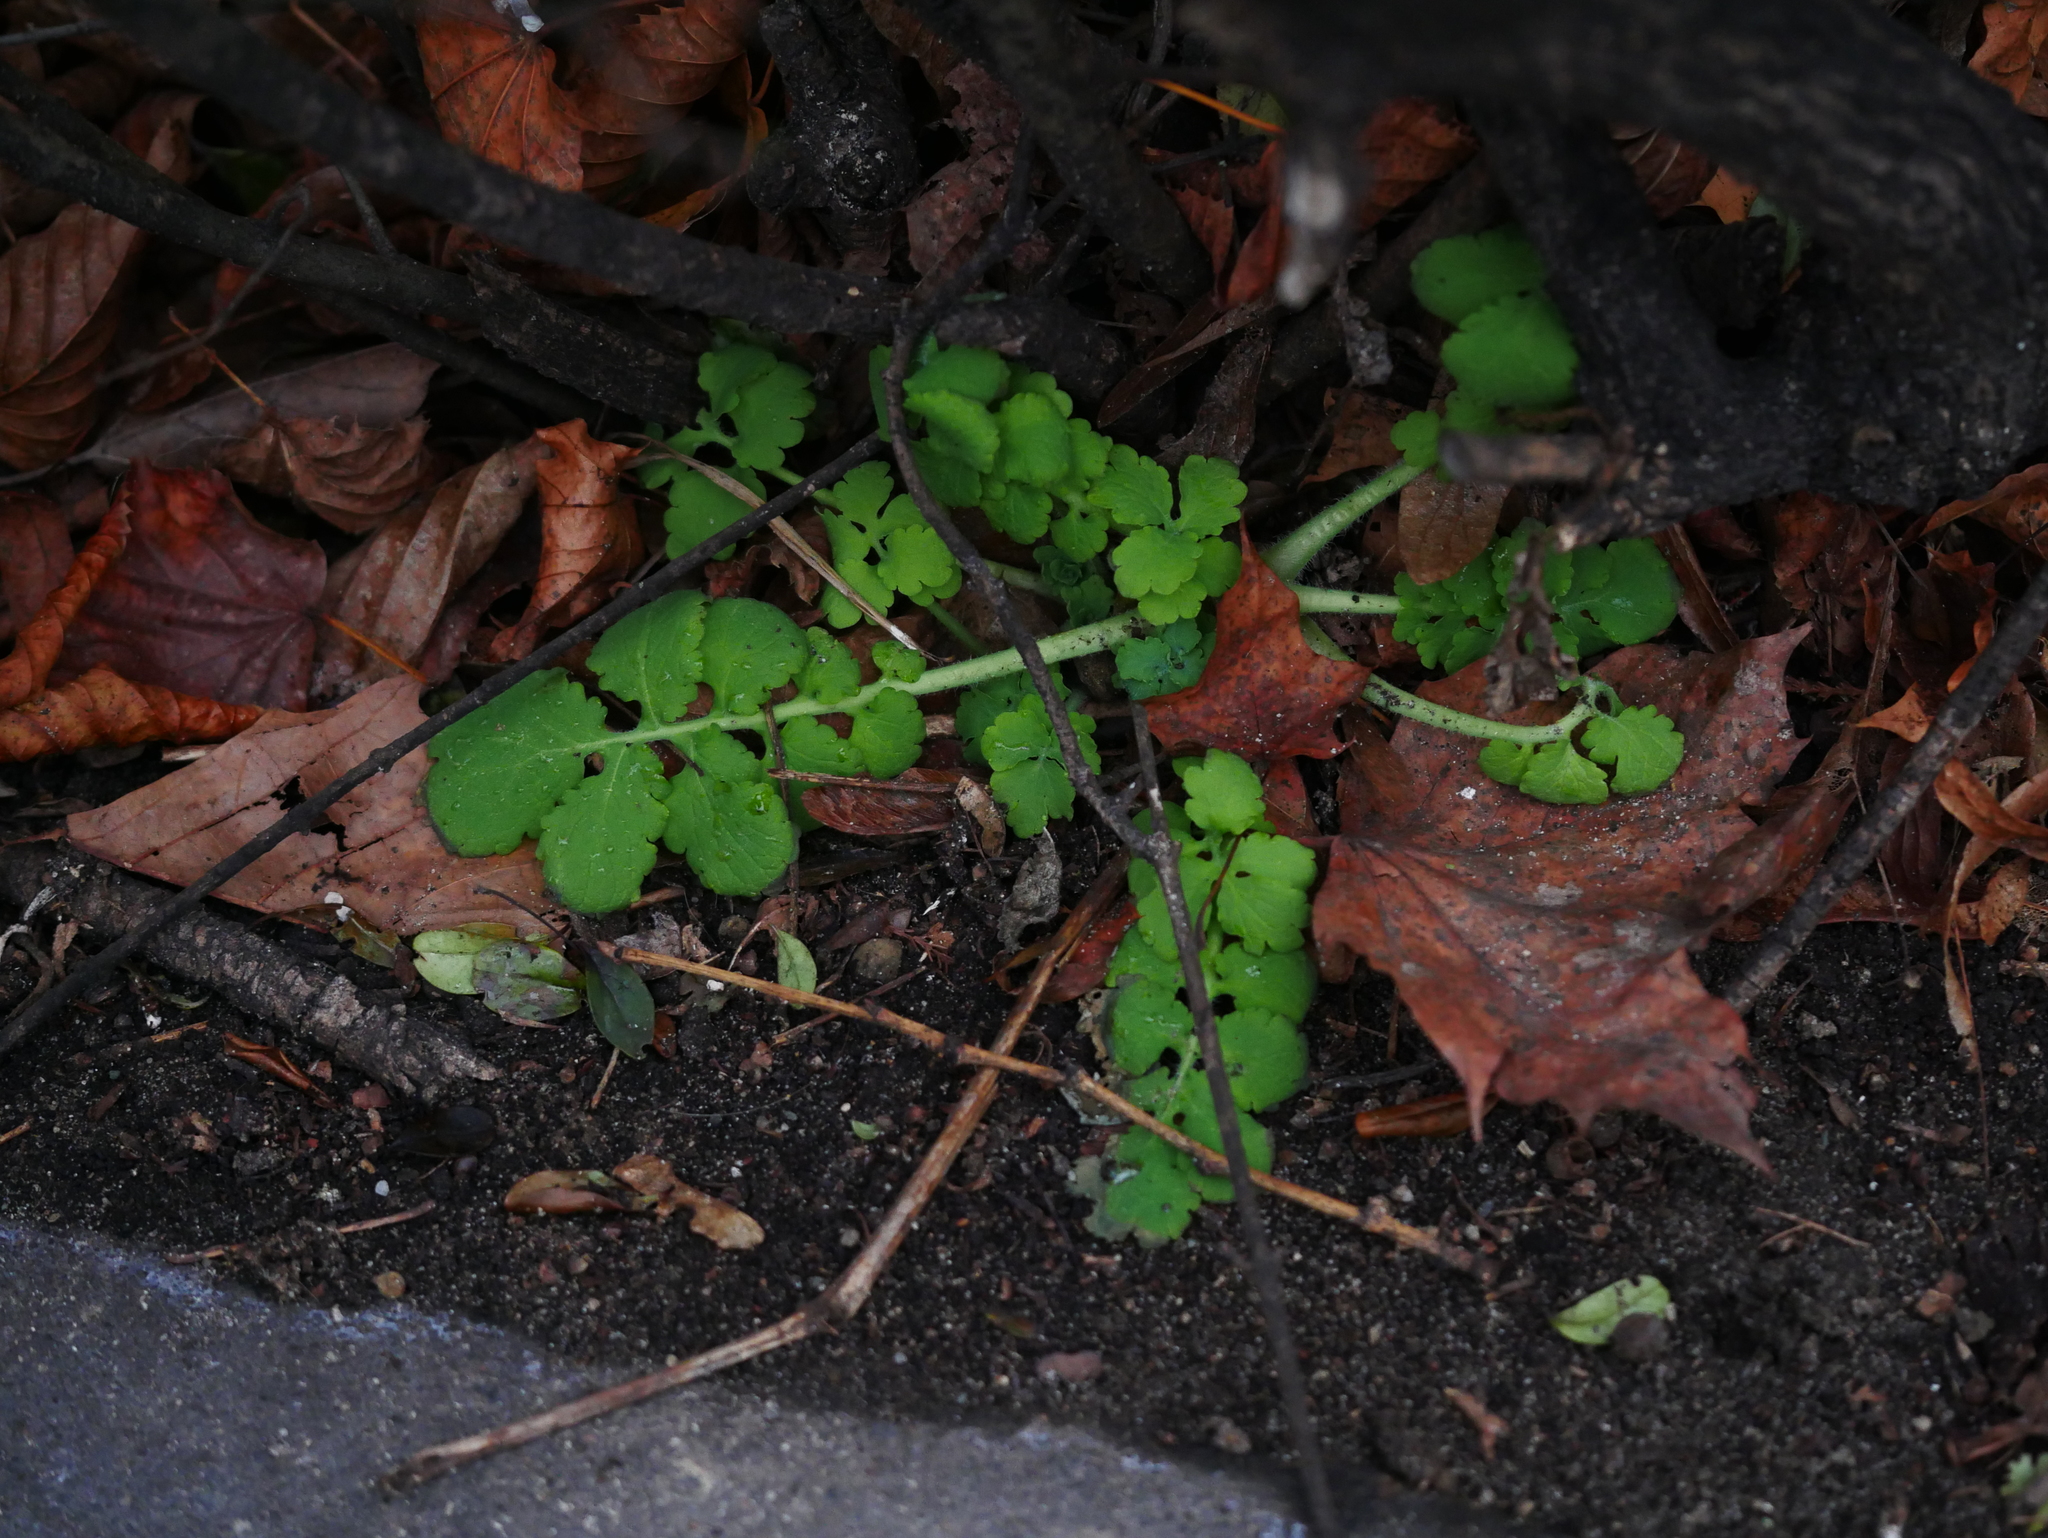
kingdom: Plantae
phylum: Tracheophyta
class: Magnoliopsida
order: Ranunculales
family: Papaveraceae
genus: Chelidonium
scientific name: Chelidonium majus
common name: Greater celandine
